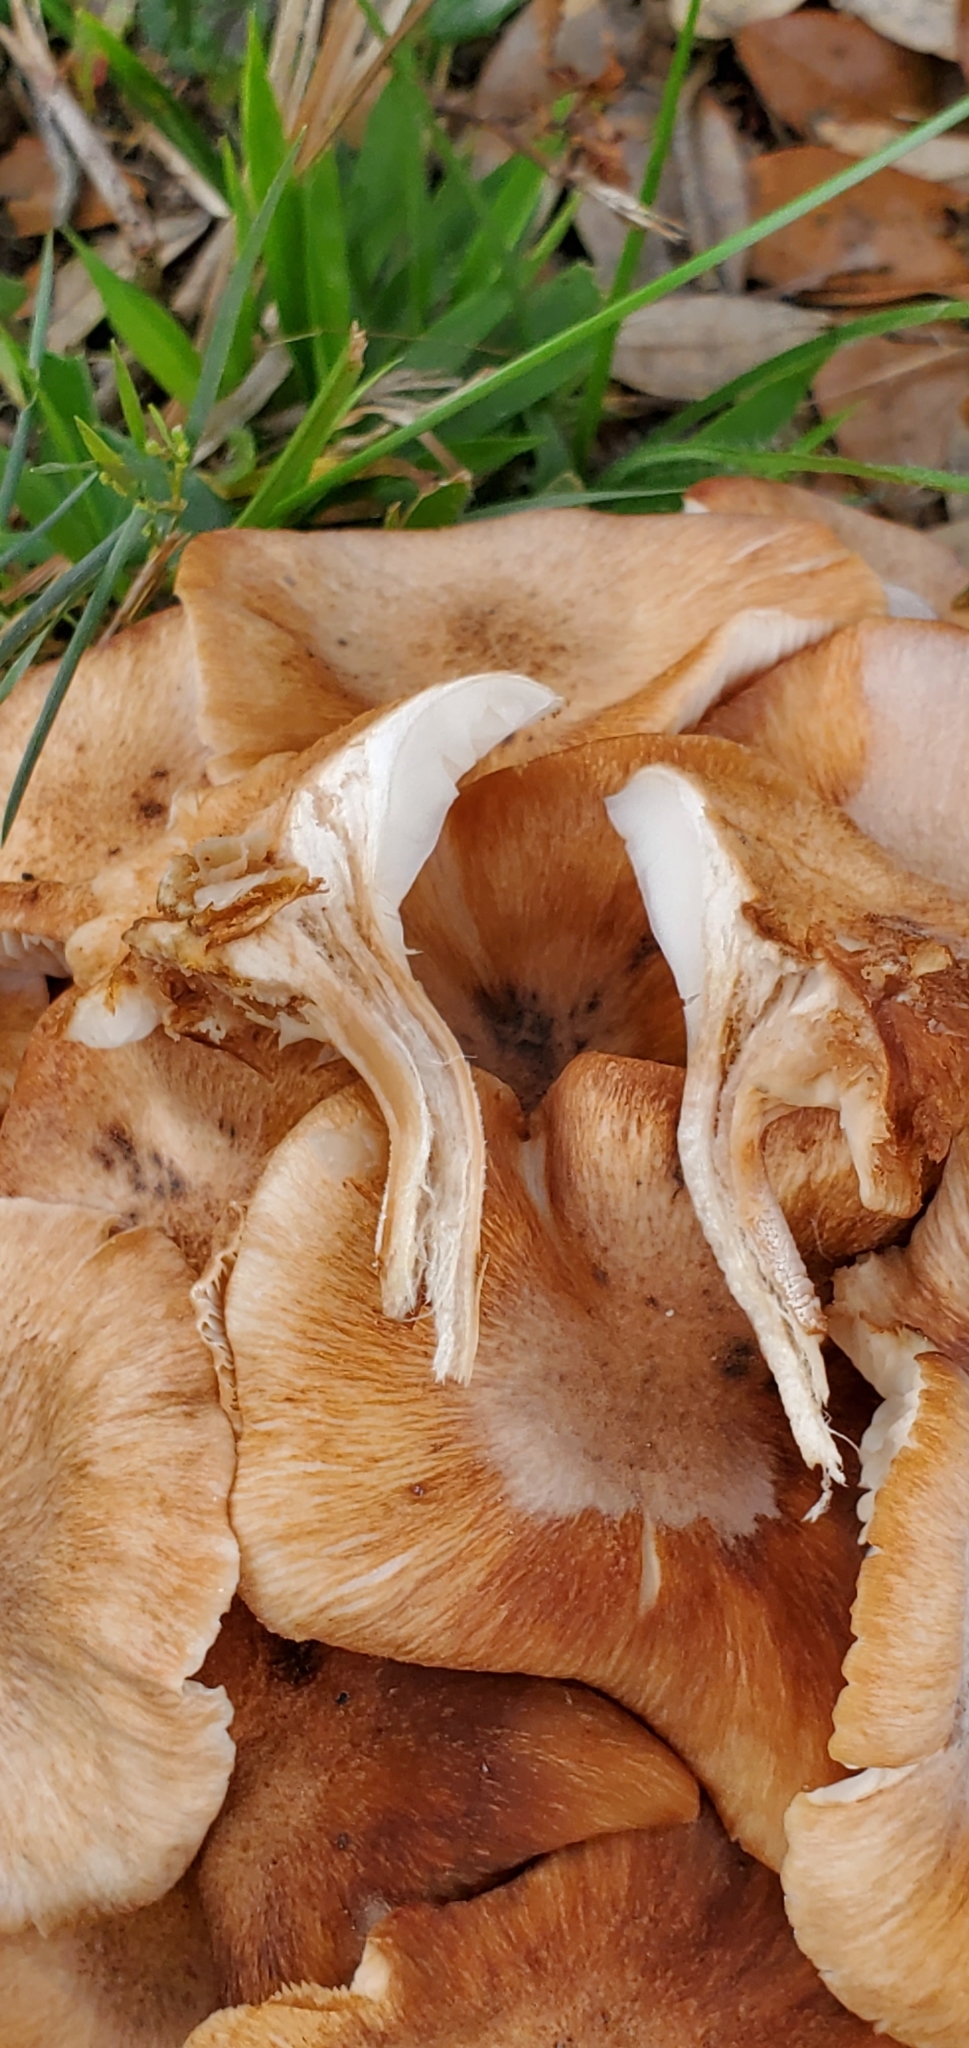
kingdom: Fungi
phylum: Basidiomycota
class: Agaricomycetes
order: Agaricales
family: Physalacriaceae
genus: Desarmillaria
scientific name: Desarmillaria caespitosa
